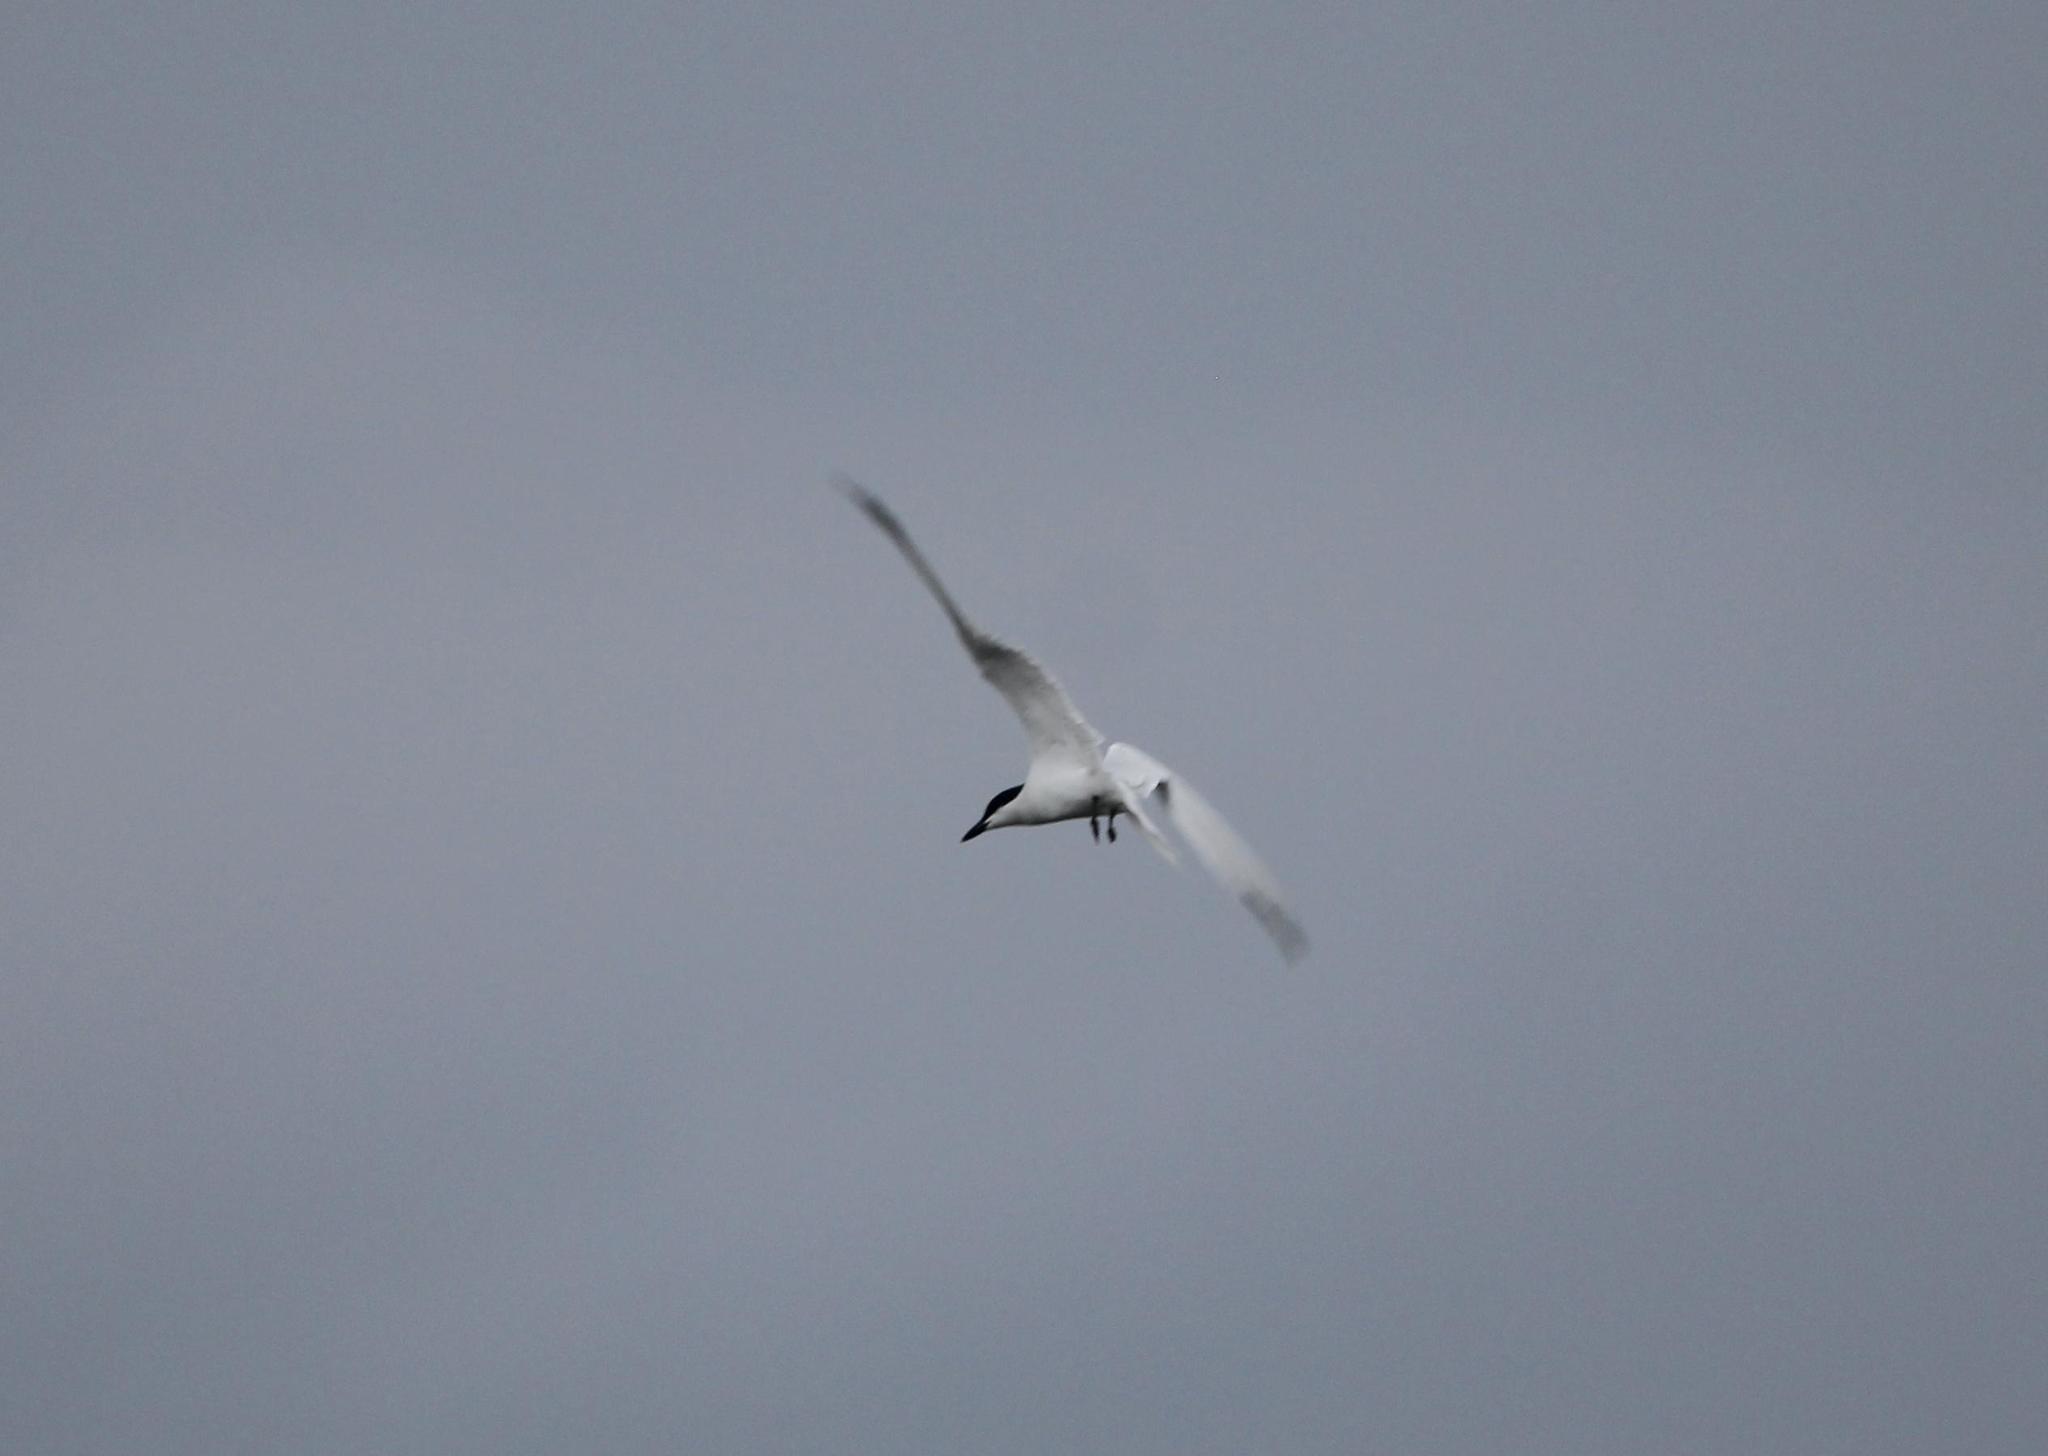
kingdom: Animalia
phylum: Chordata
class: Aves
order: Charadriiformes
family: Laridae
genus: Gelochelidon
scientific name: Gelochelidon nilotica
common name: Gull-billed tern
